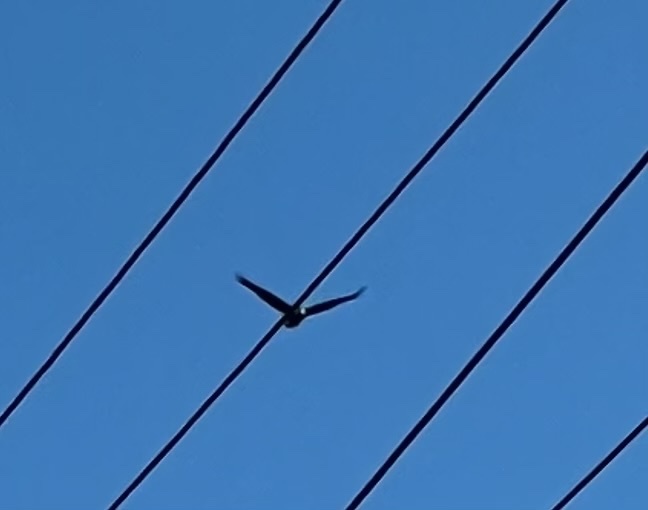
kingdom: Animalia
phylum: Chordata
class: Aves
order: Accipitriformes
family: Accipitridae
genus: Haliaeetus
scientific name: Haliaeetus leucocephalus
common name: Bald eagle
